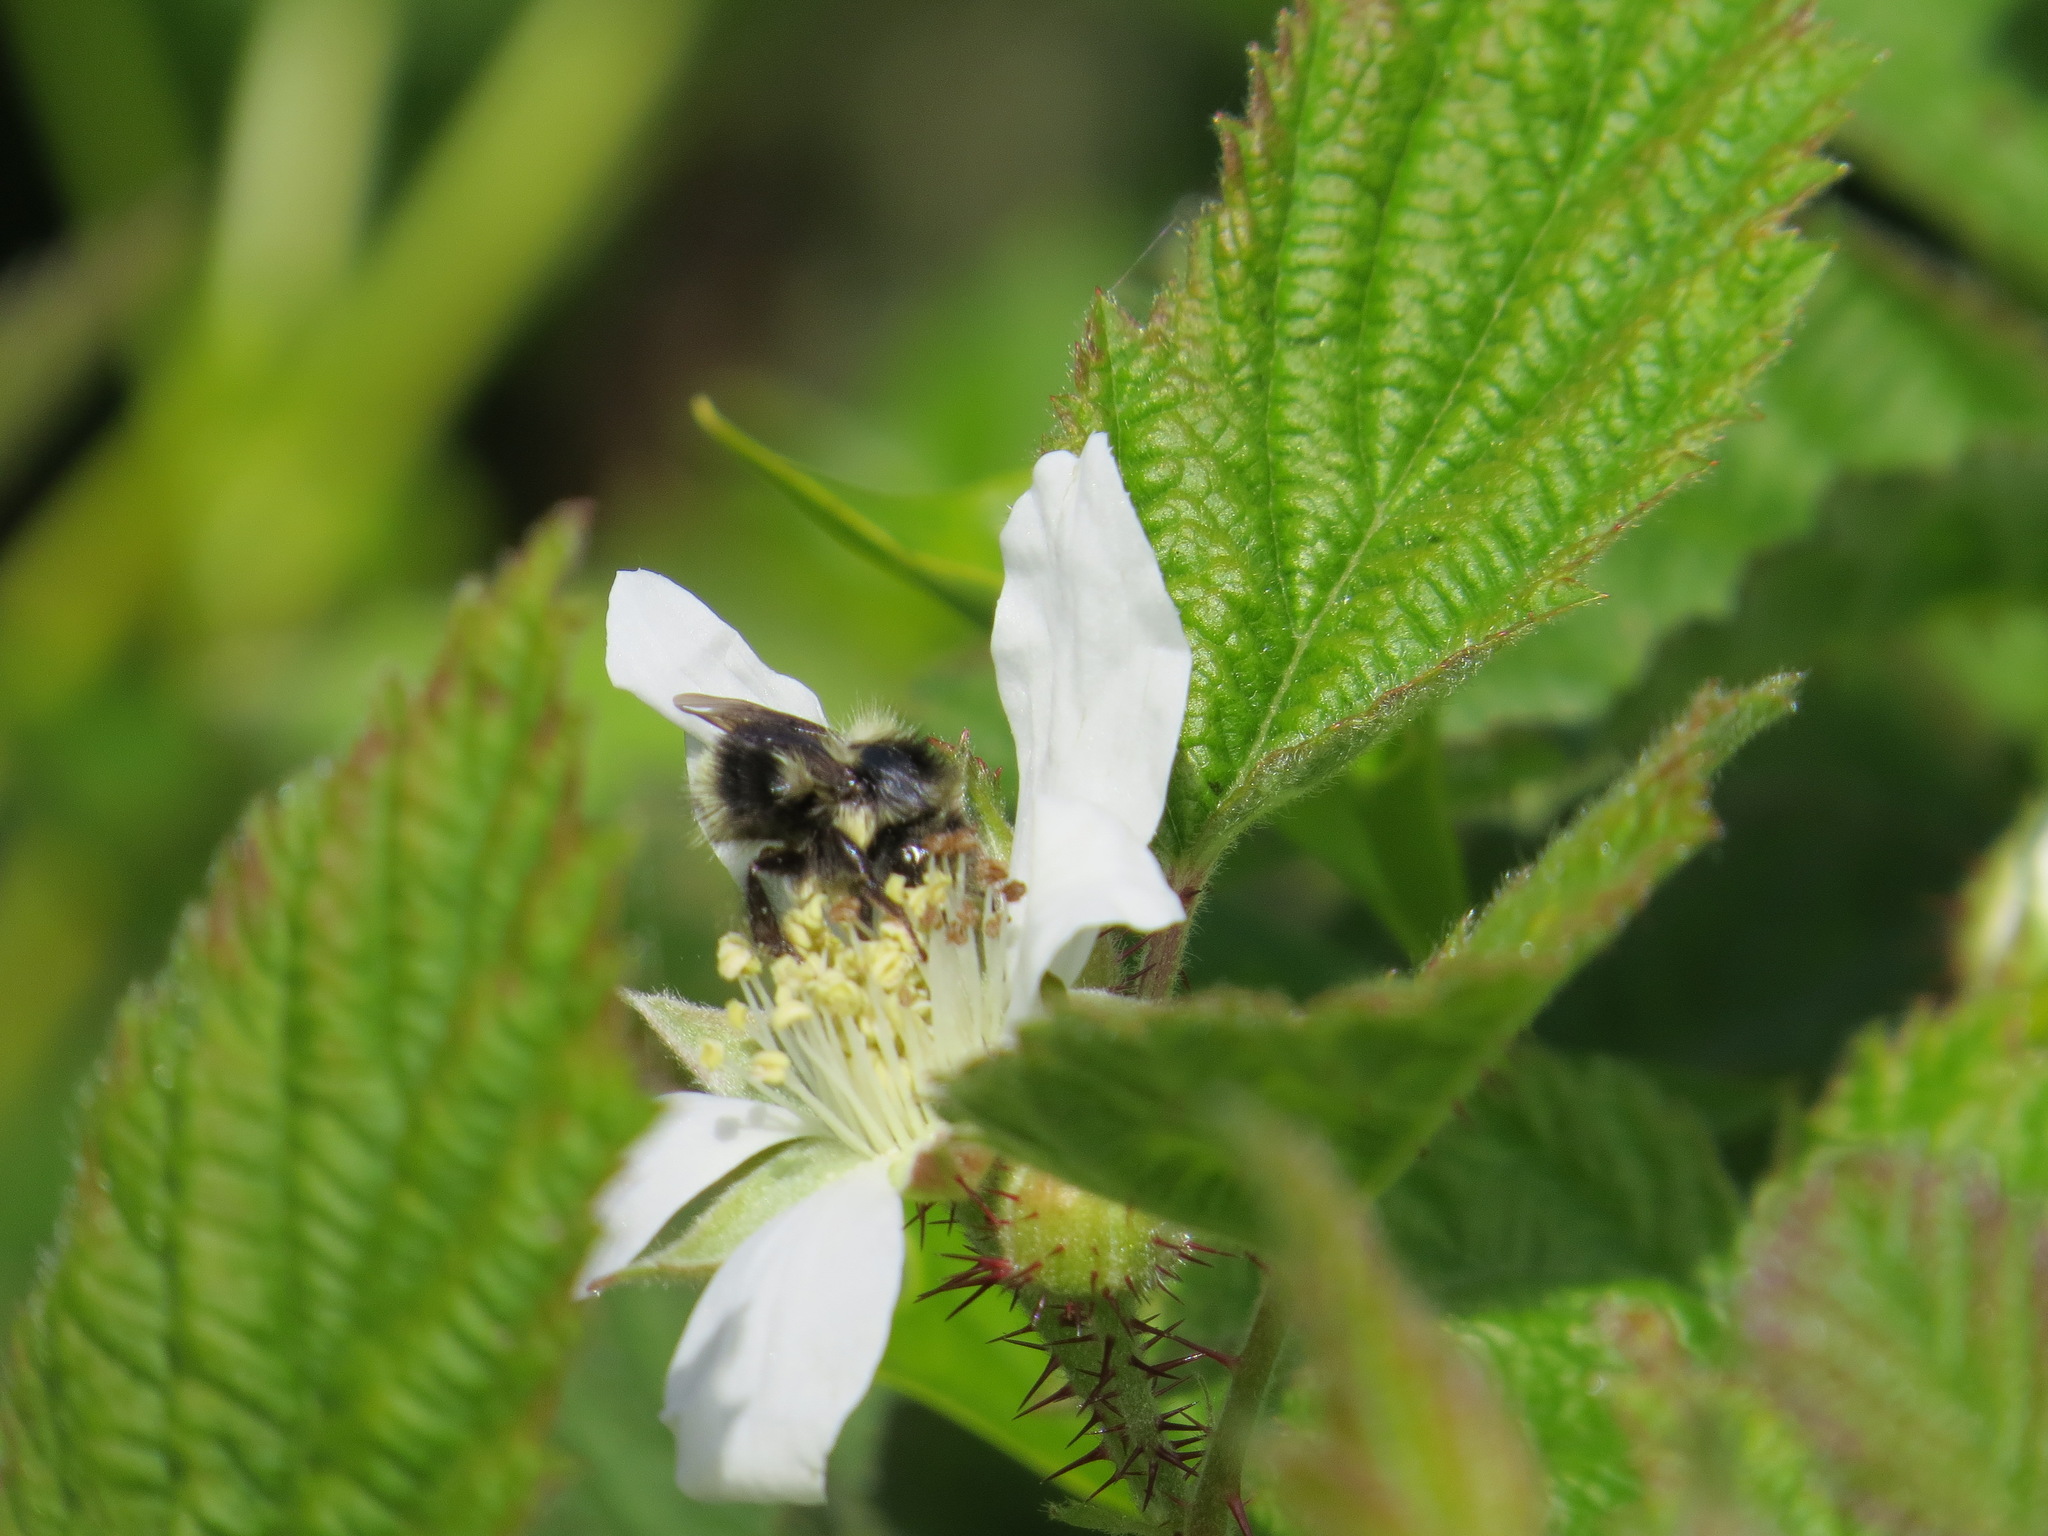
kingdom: Animalia
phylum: Arthropoda
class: Insecta
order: Hymenoptera
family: Apidae
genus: Bombus
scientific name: Bombus melanopygus
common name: Black tail bumble bee
